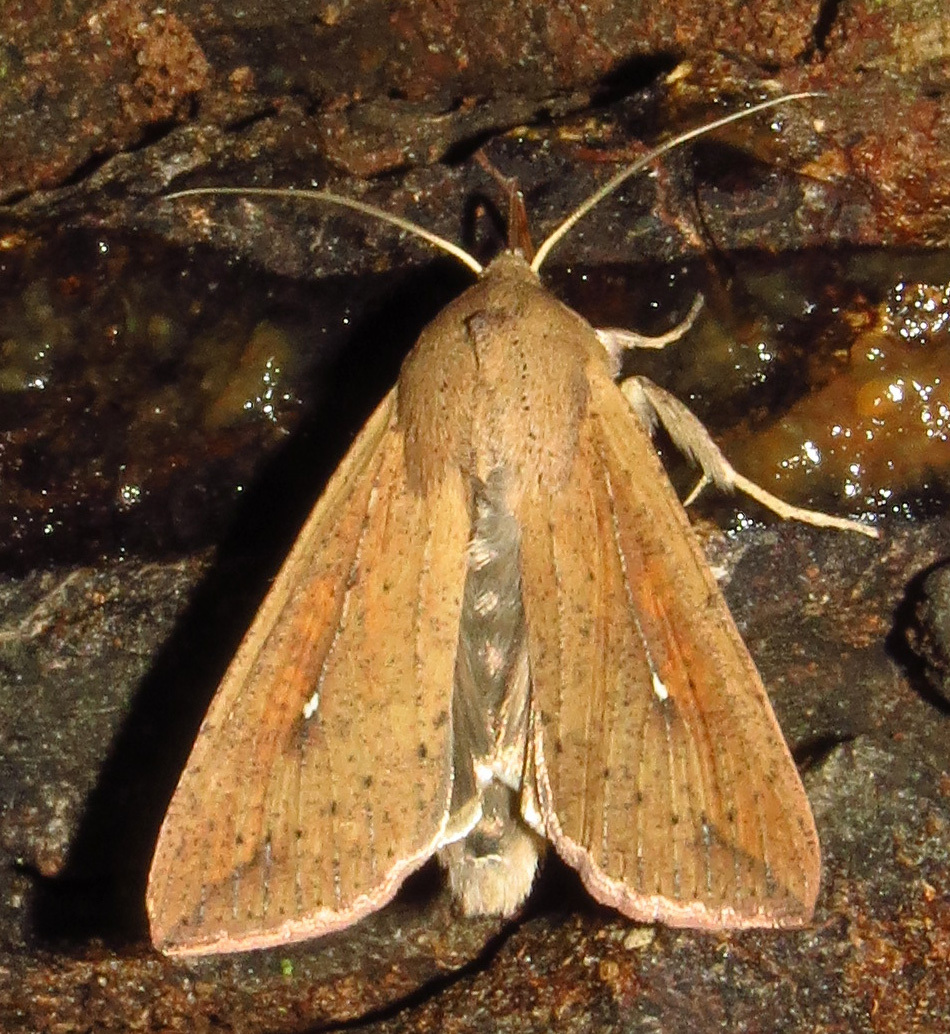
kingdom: Animalia
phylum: Arthropoda
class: Insecta
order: Lepidoptera
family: Noctuidae
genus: Mythimna
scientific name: Mythimna unipuncta
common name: White-speck
